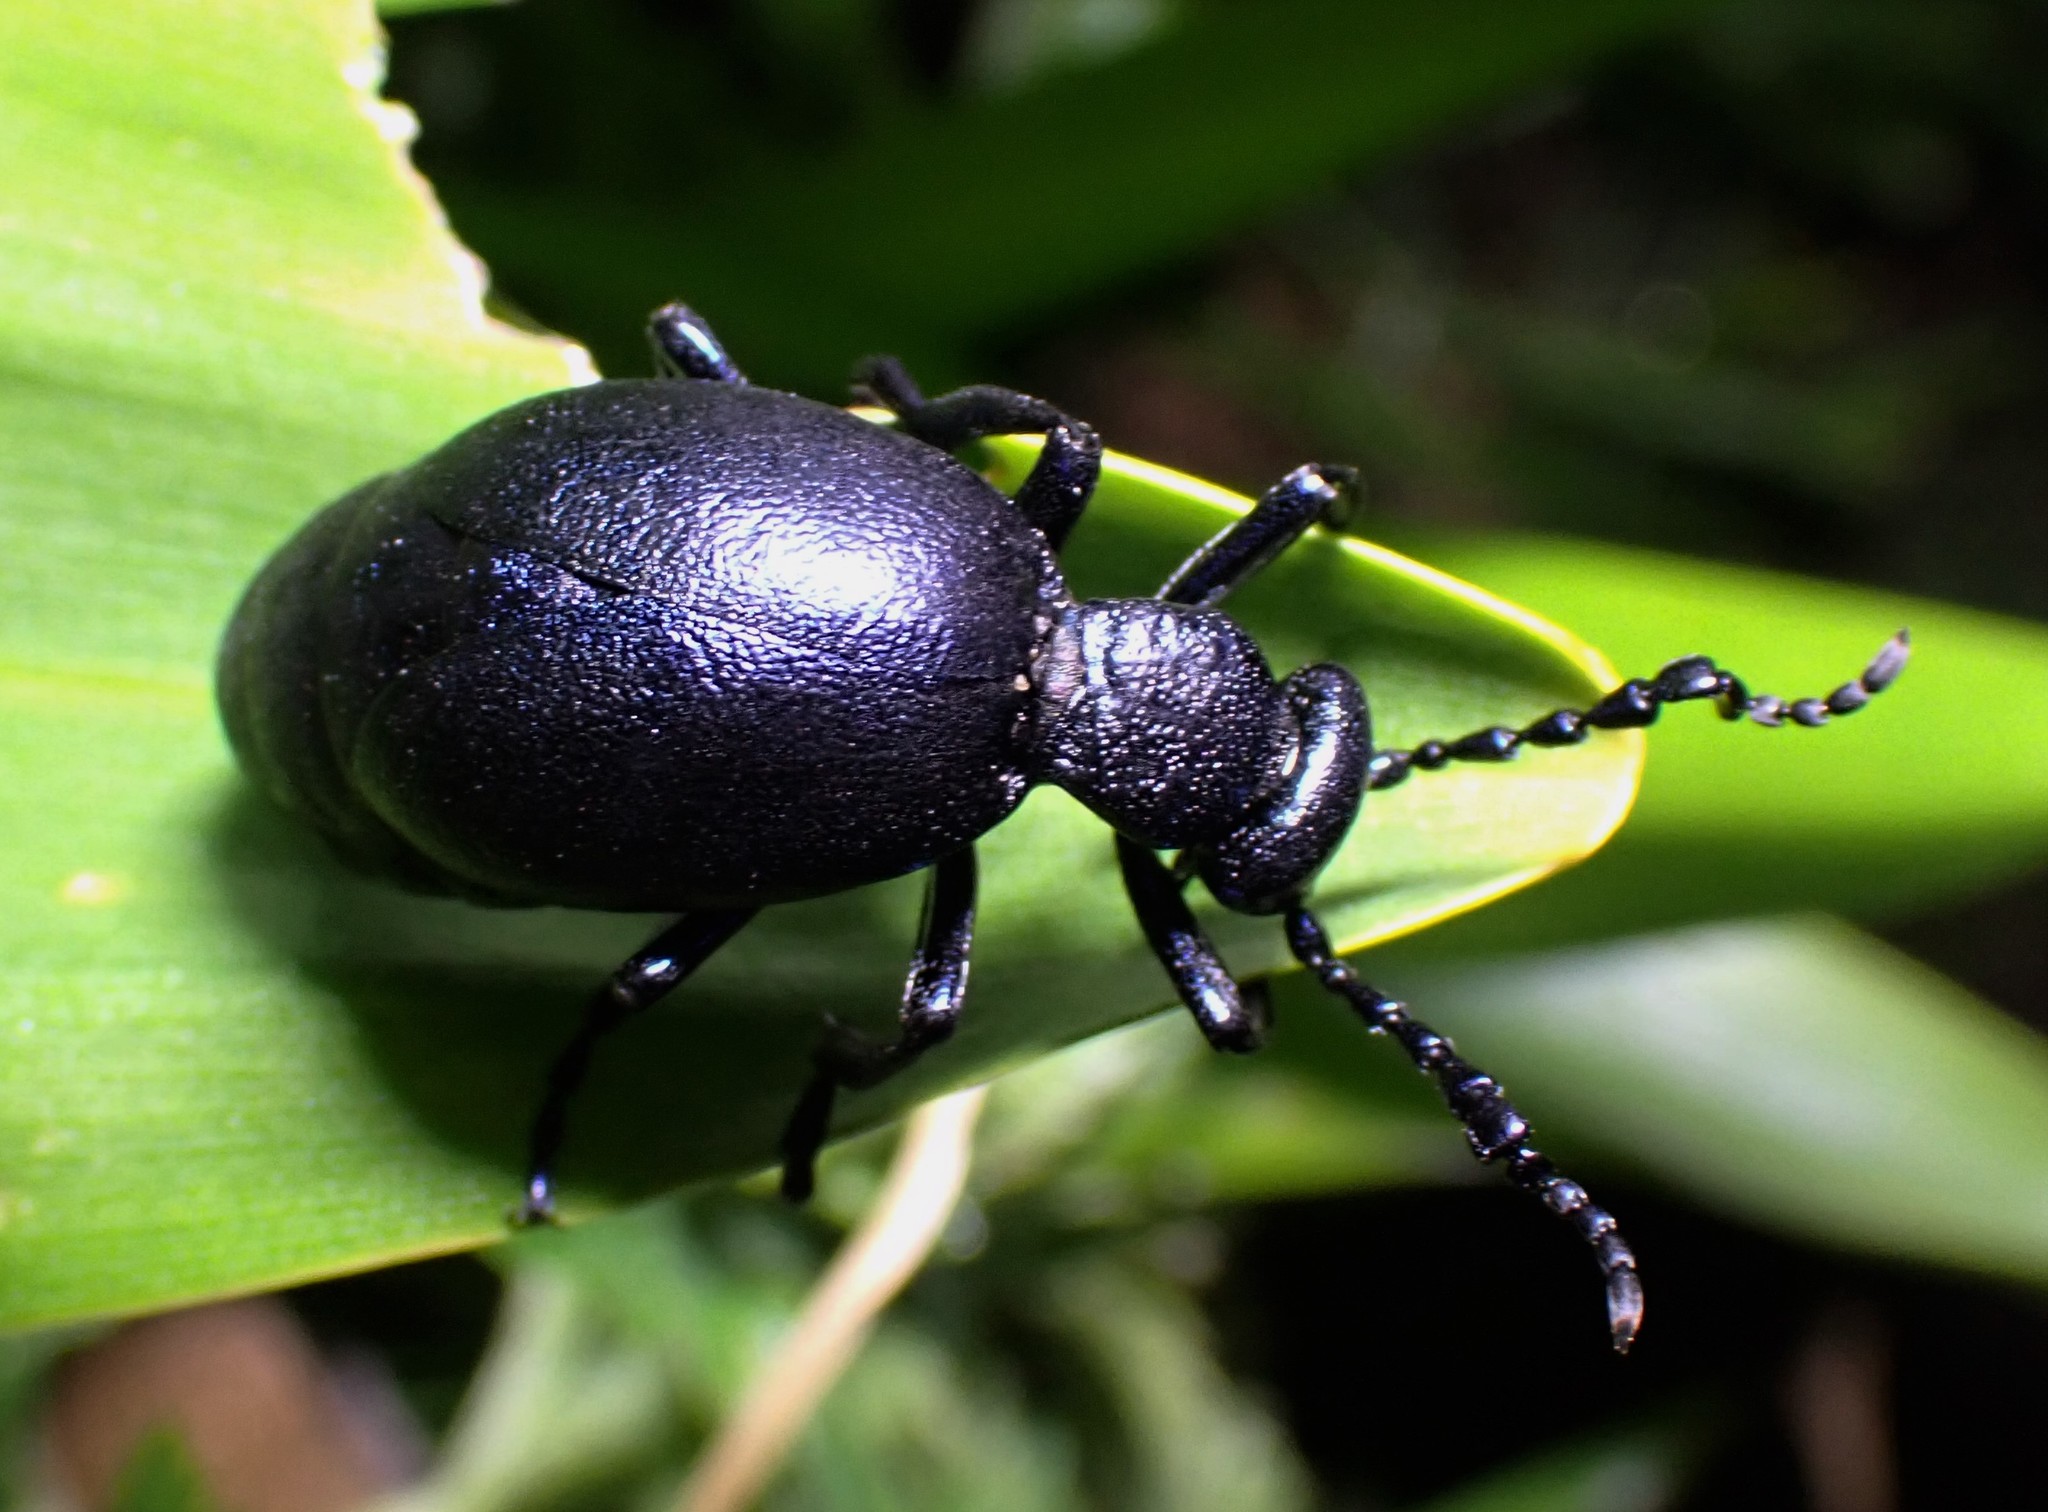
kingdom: Animalia
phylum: Arthropoda
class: Insecta
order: Coleoptera
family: Meloidae
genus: Meloe
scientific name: Meloe violaceus
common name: Violet oil-beetle
